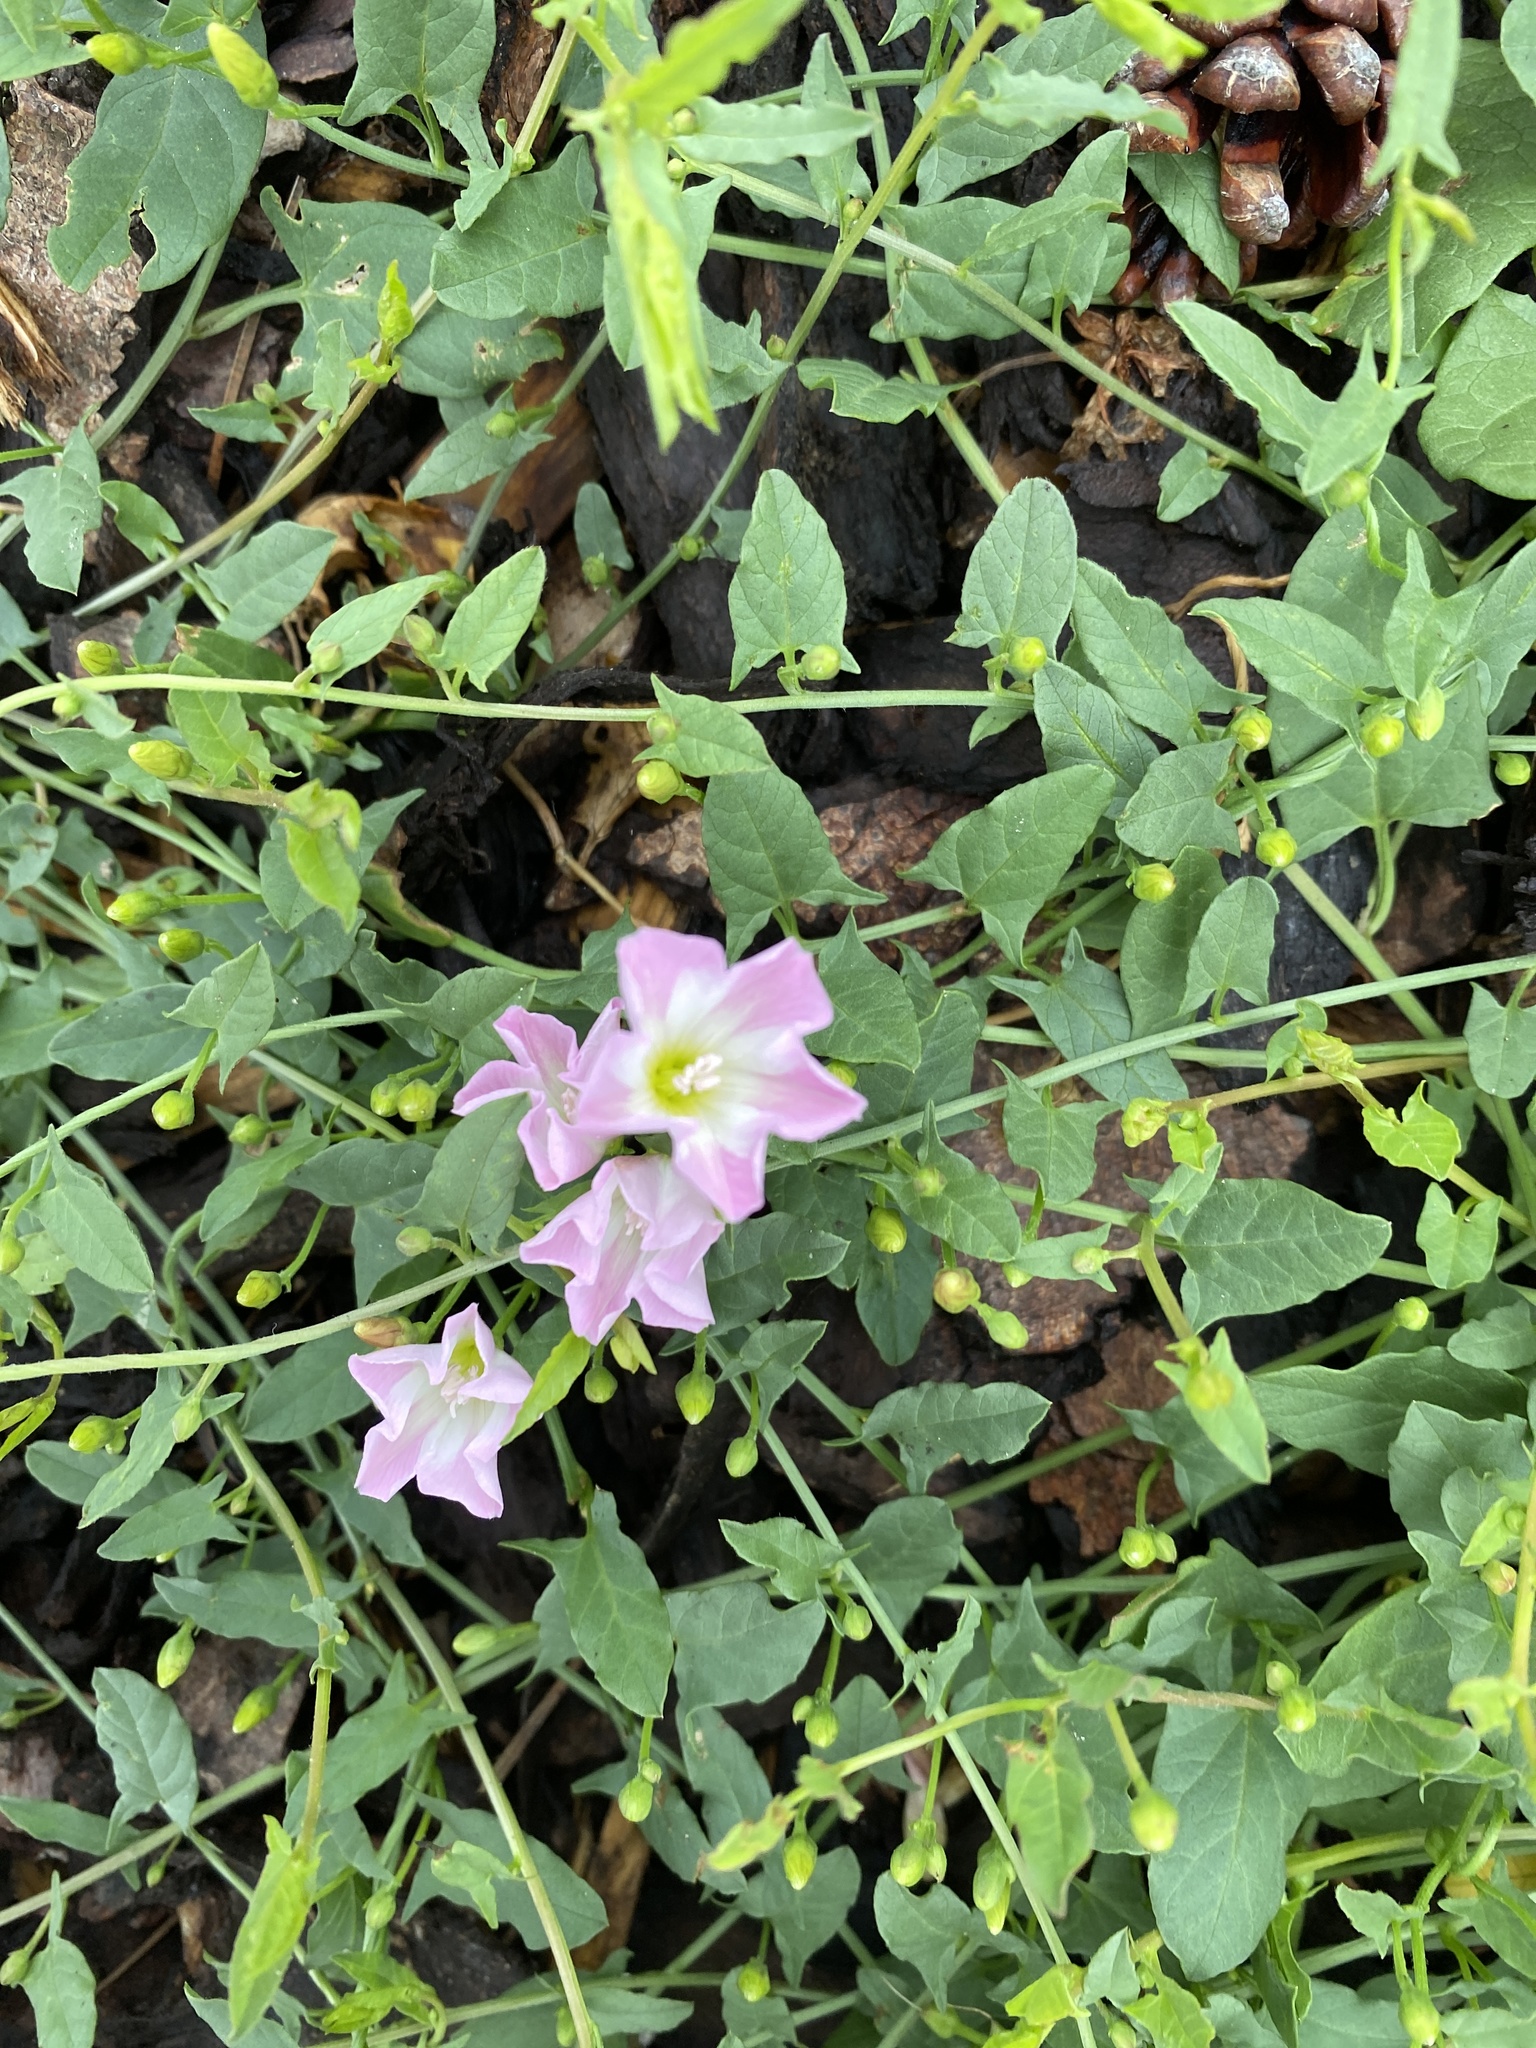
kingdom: Plantae
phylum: Tracheophyta
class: Magnoliopsida
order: Solanales
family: Convolvulaceae
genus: Convolvulus
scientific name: Convolvulus arvensis
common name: Field bindweed
